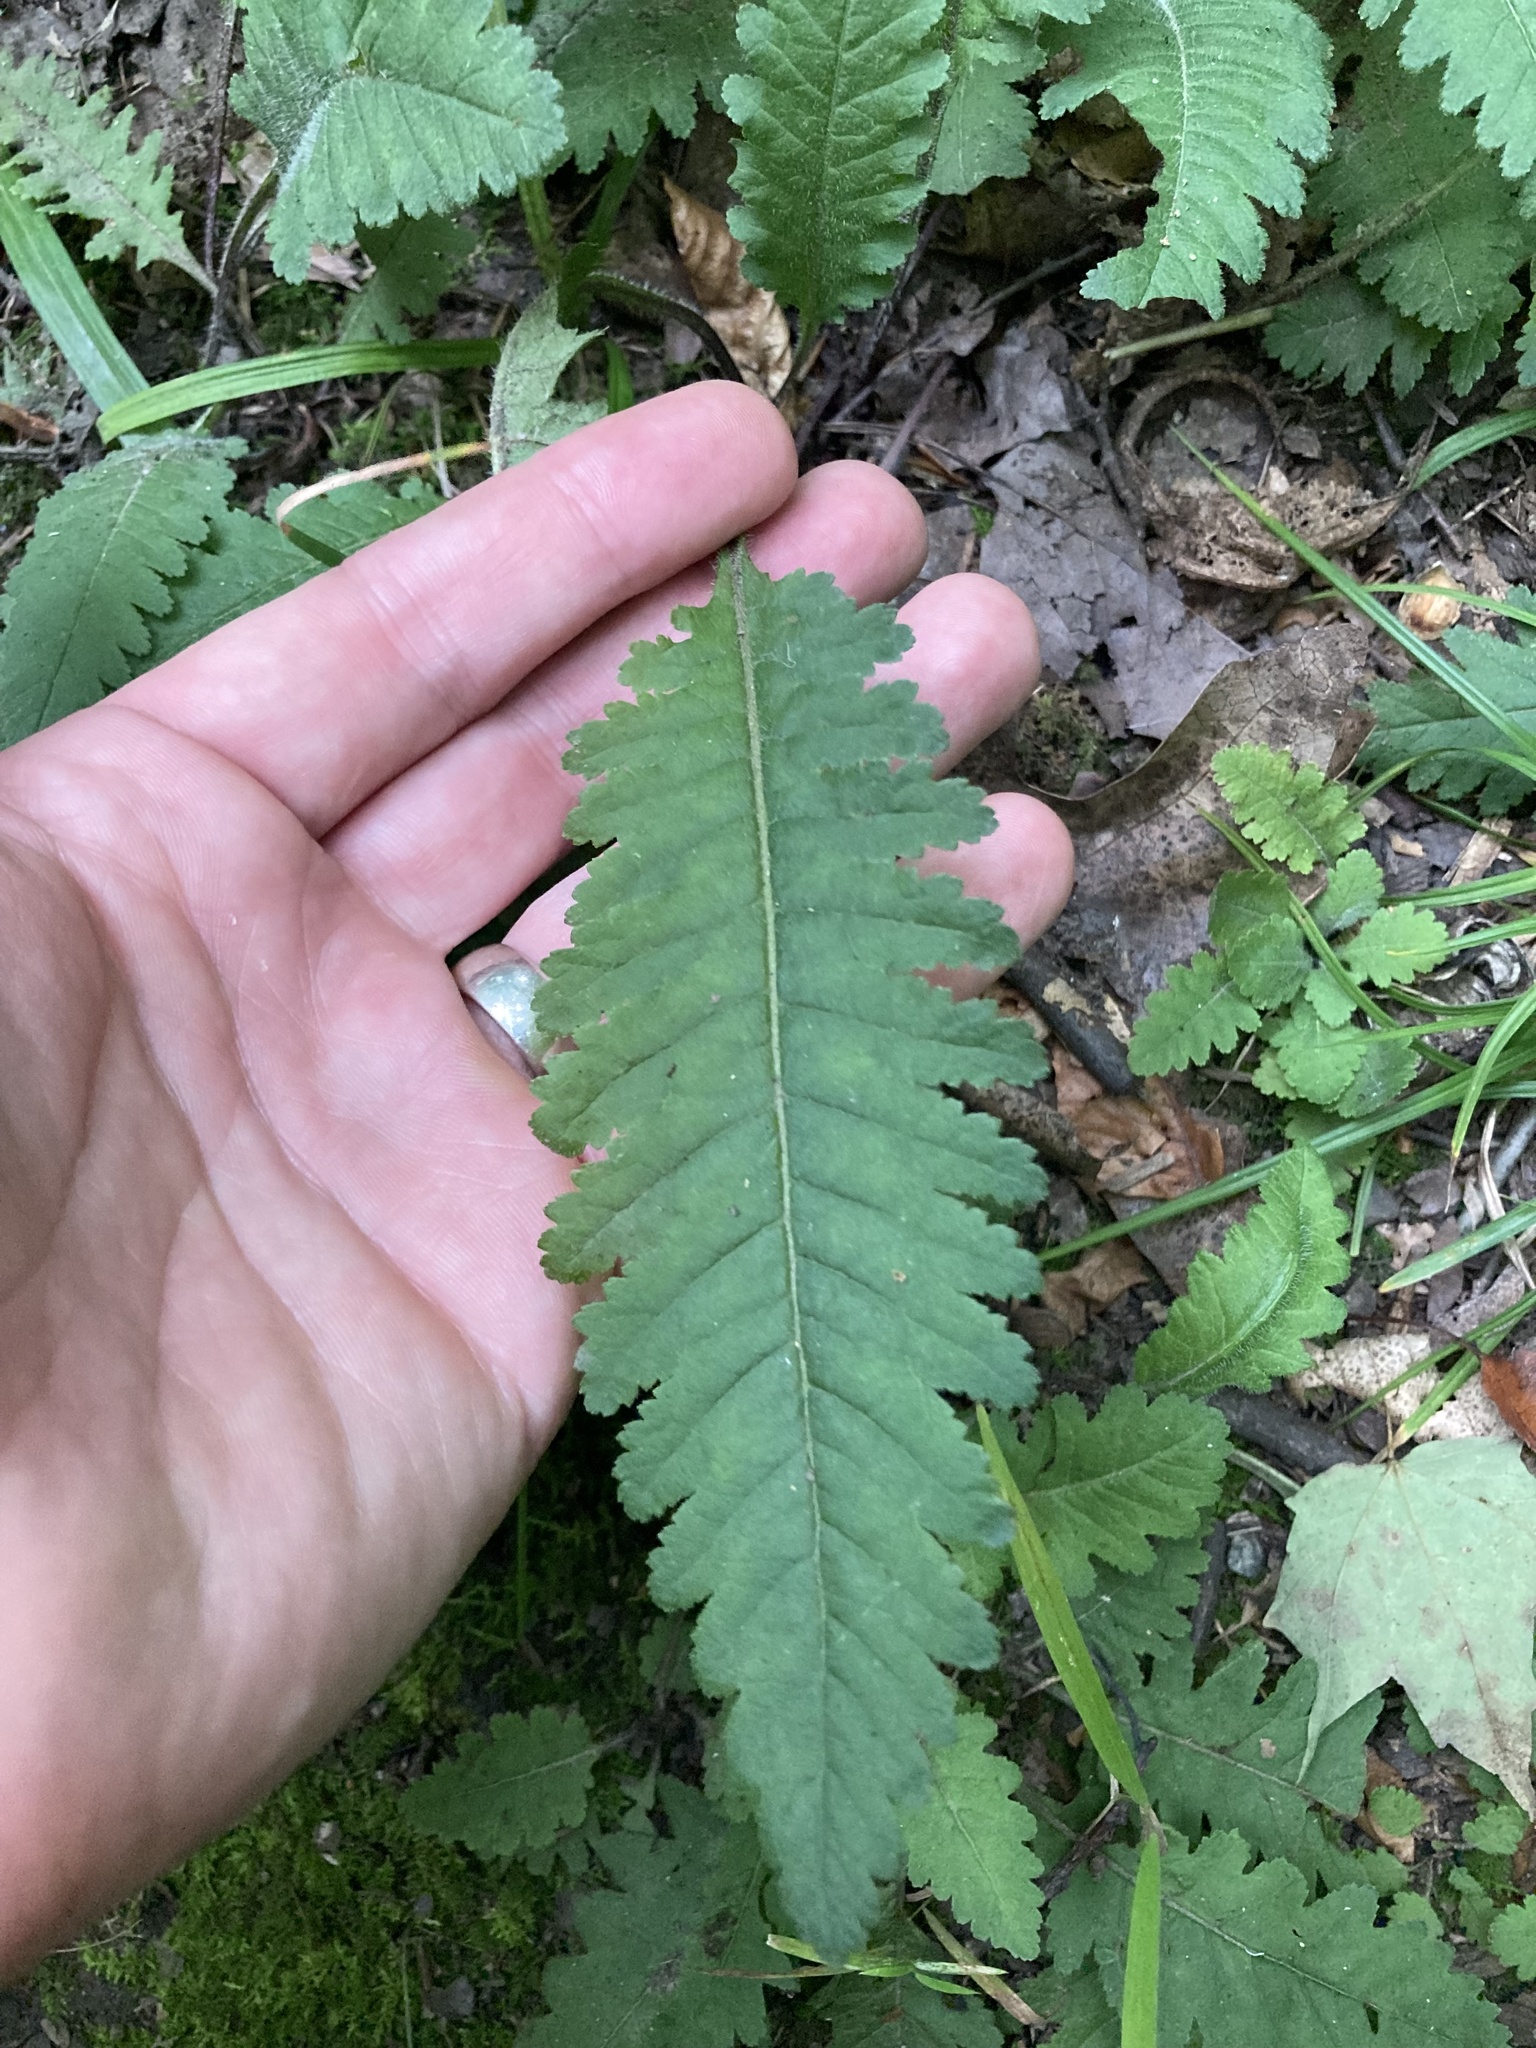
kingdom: Plantae
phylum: Tracheophyta
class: Magnoliopsida
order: Lamiales
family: Orobanchaceae
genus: Pedicularis
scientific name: Pedicularis canadensis
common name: Early lousewort
